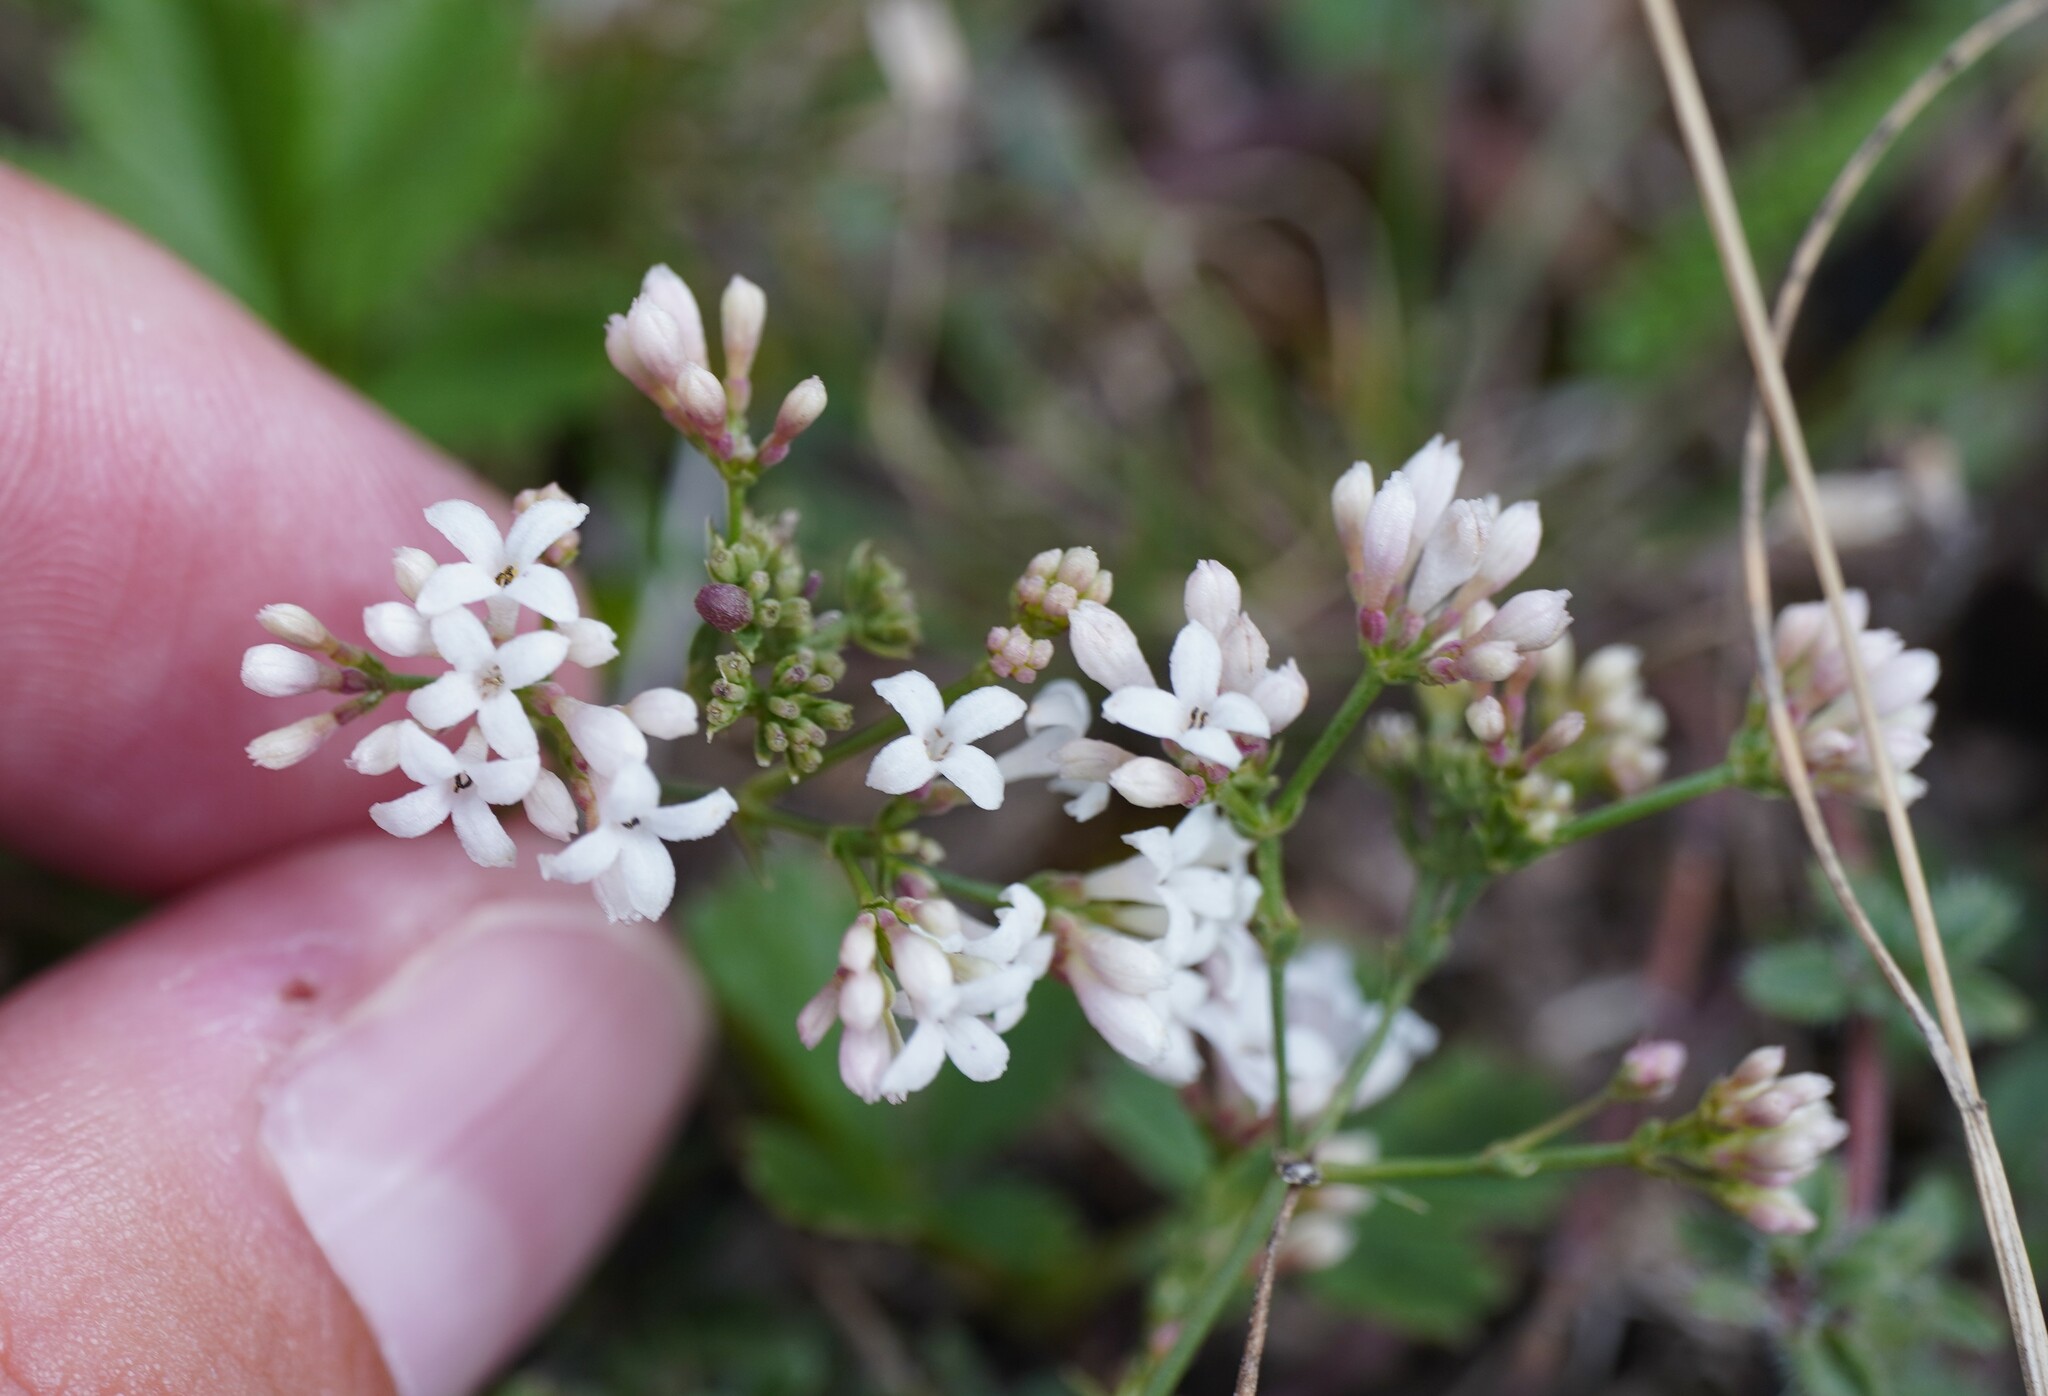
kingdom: Plantae
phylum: Tracheophyta
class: Magnoliopsida
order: Gentianales
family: Rubiaceae
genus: Cynanchica
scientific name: Cynanchica pyrenaica
